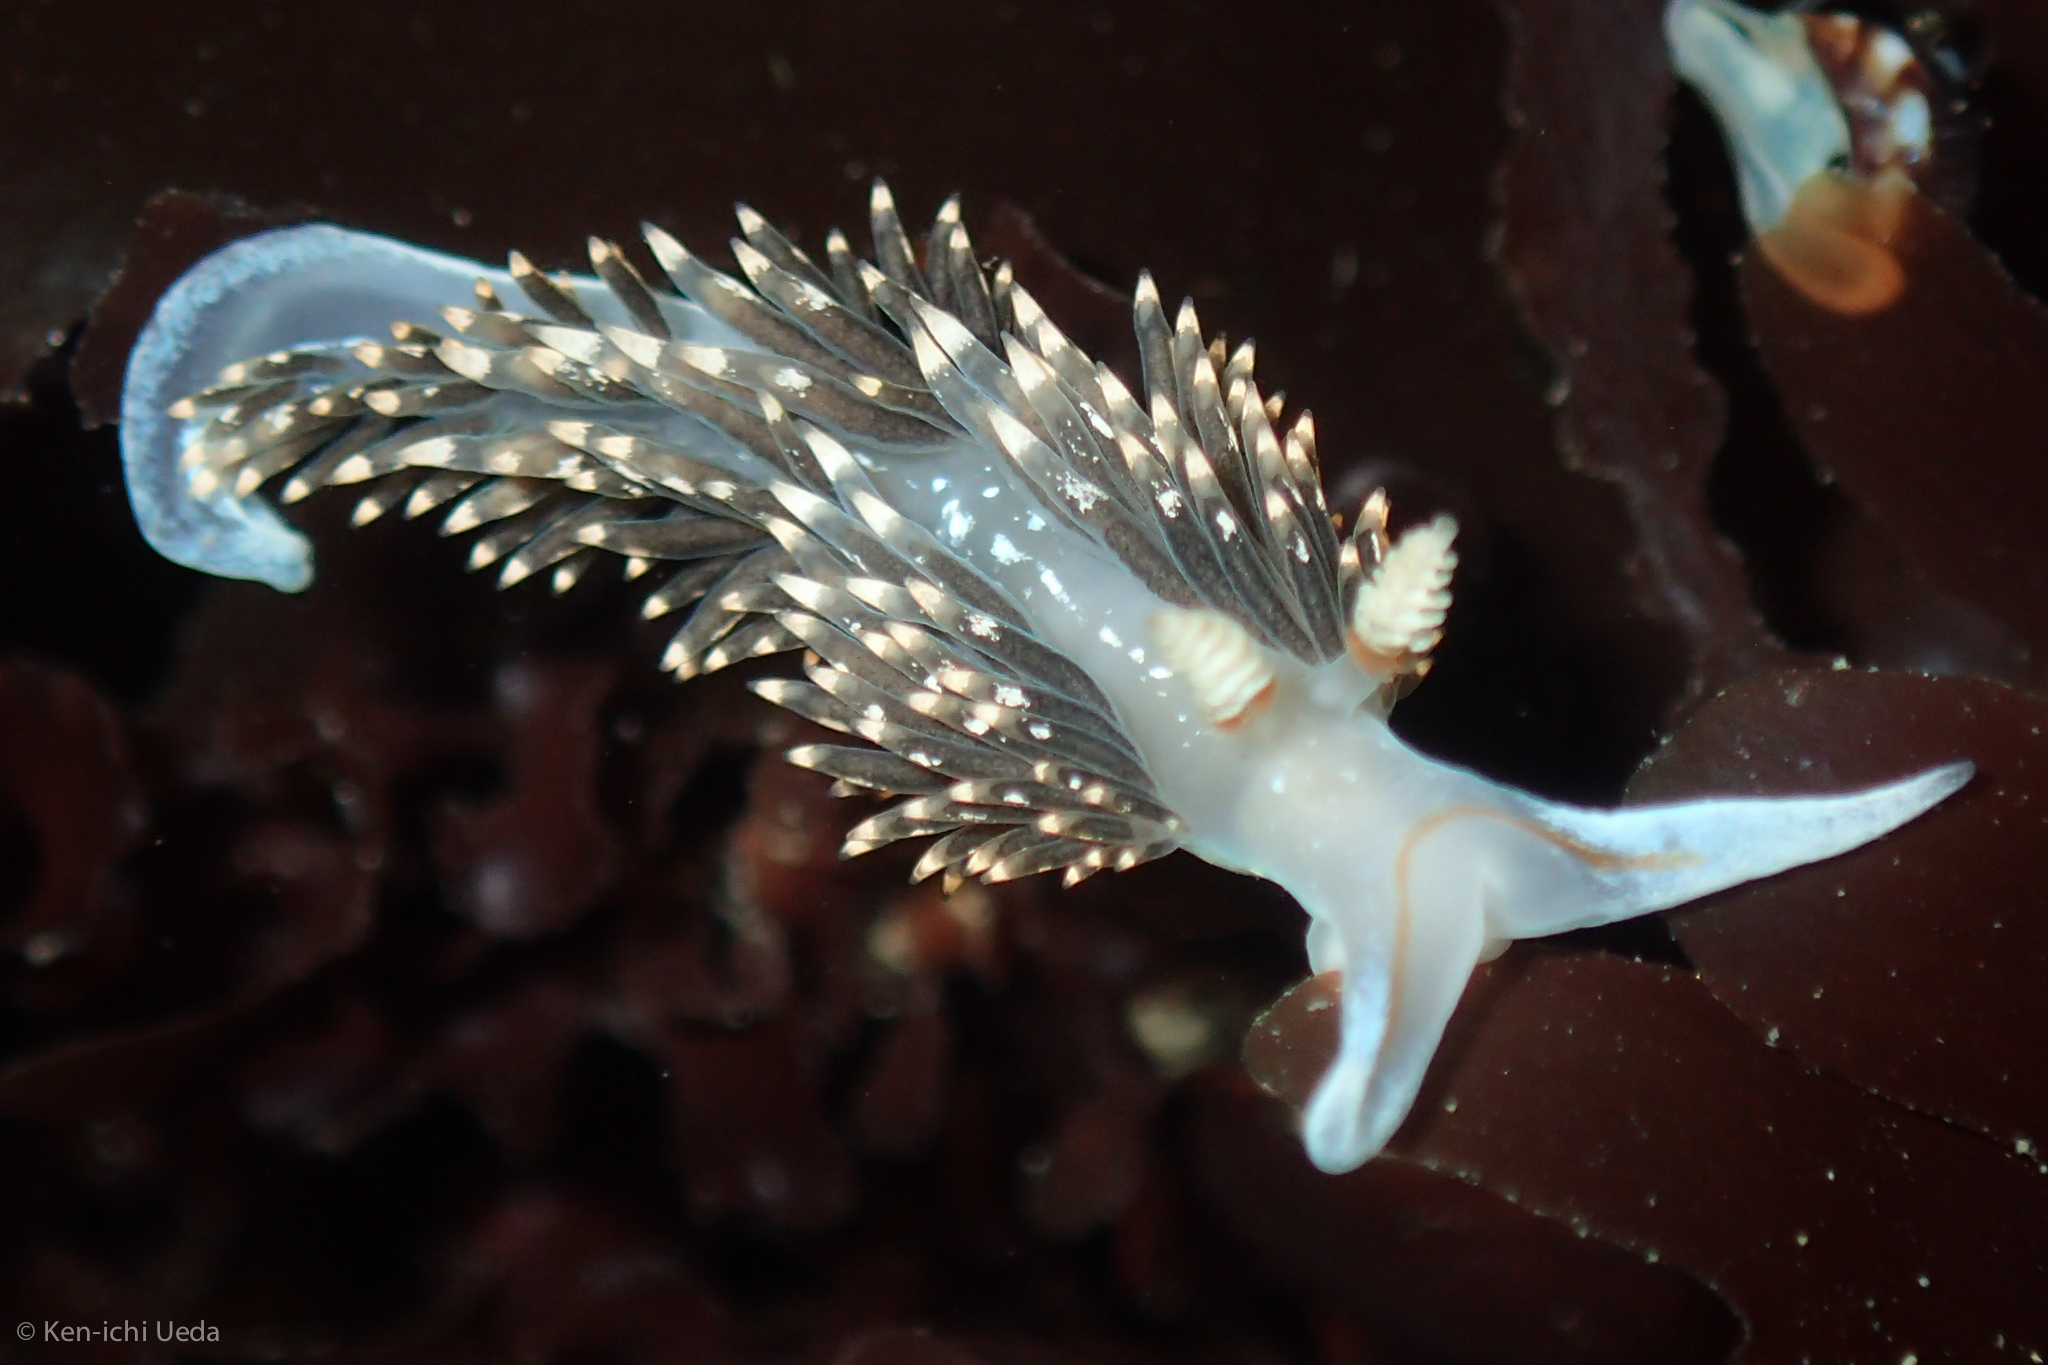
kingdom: Animalia
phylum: Mollusca
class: Gastropoda
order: Nudibranchia
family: Facelinidae
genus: Phidiana
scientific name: Phidiana hiltoni
